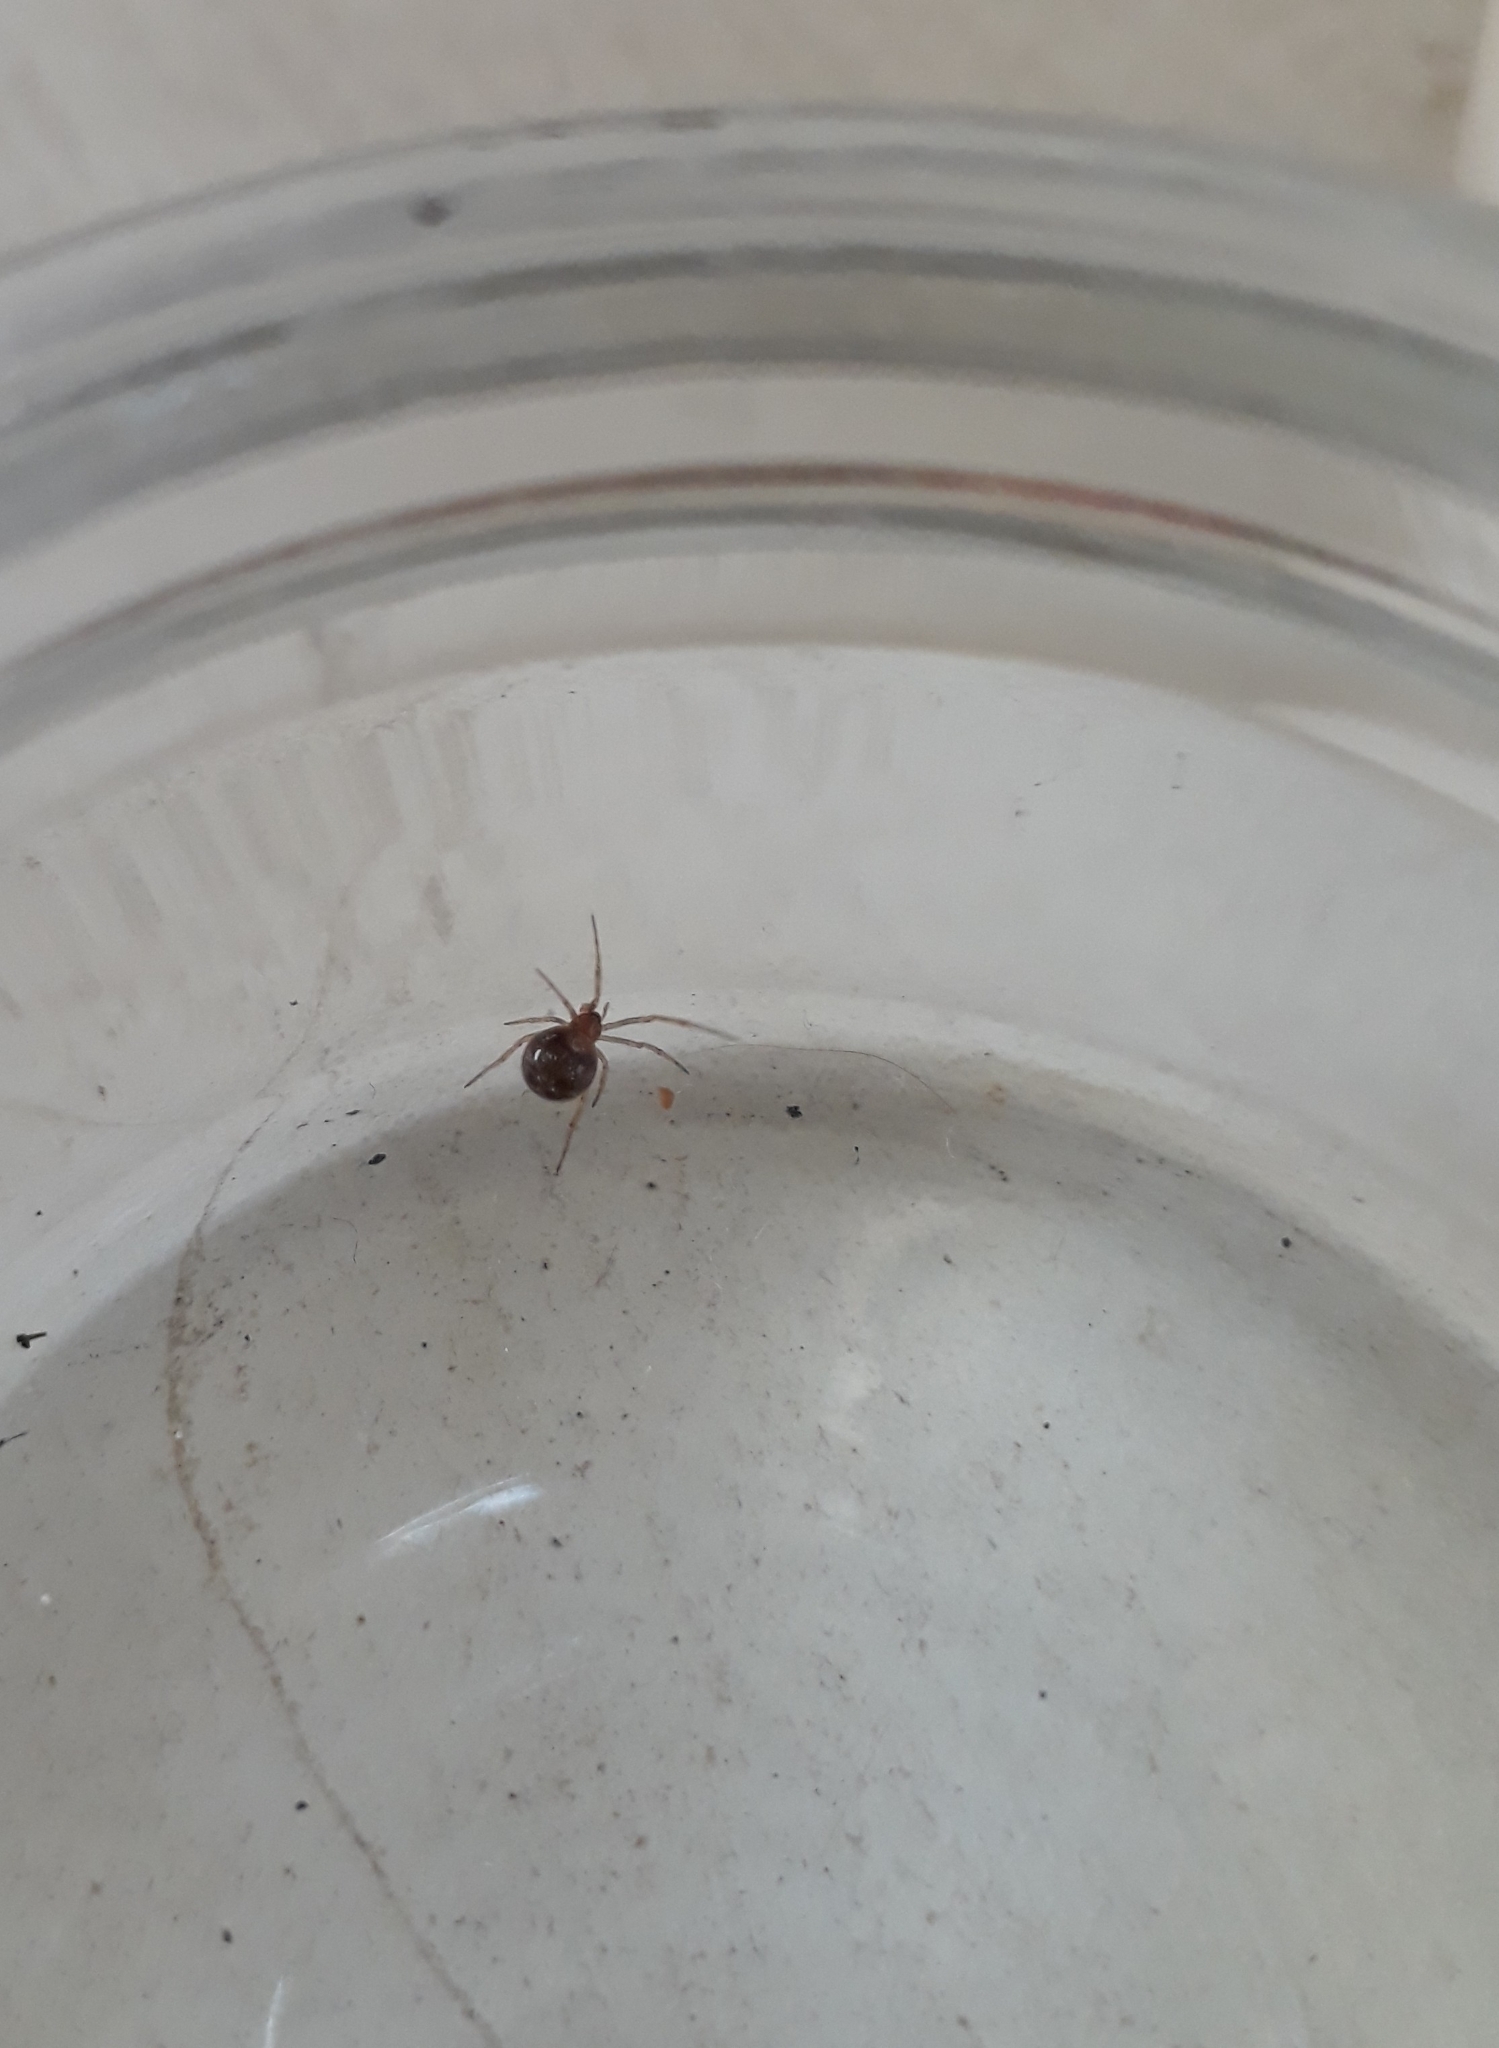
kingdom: Animalia
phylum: Arthropoda
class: Arachnida
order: Araneae
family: Theridiidae
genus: Steatoda
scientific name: Steatoda triangulosa
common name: Triangulate bud spider
